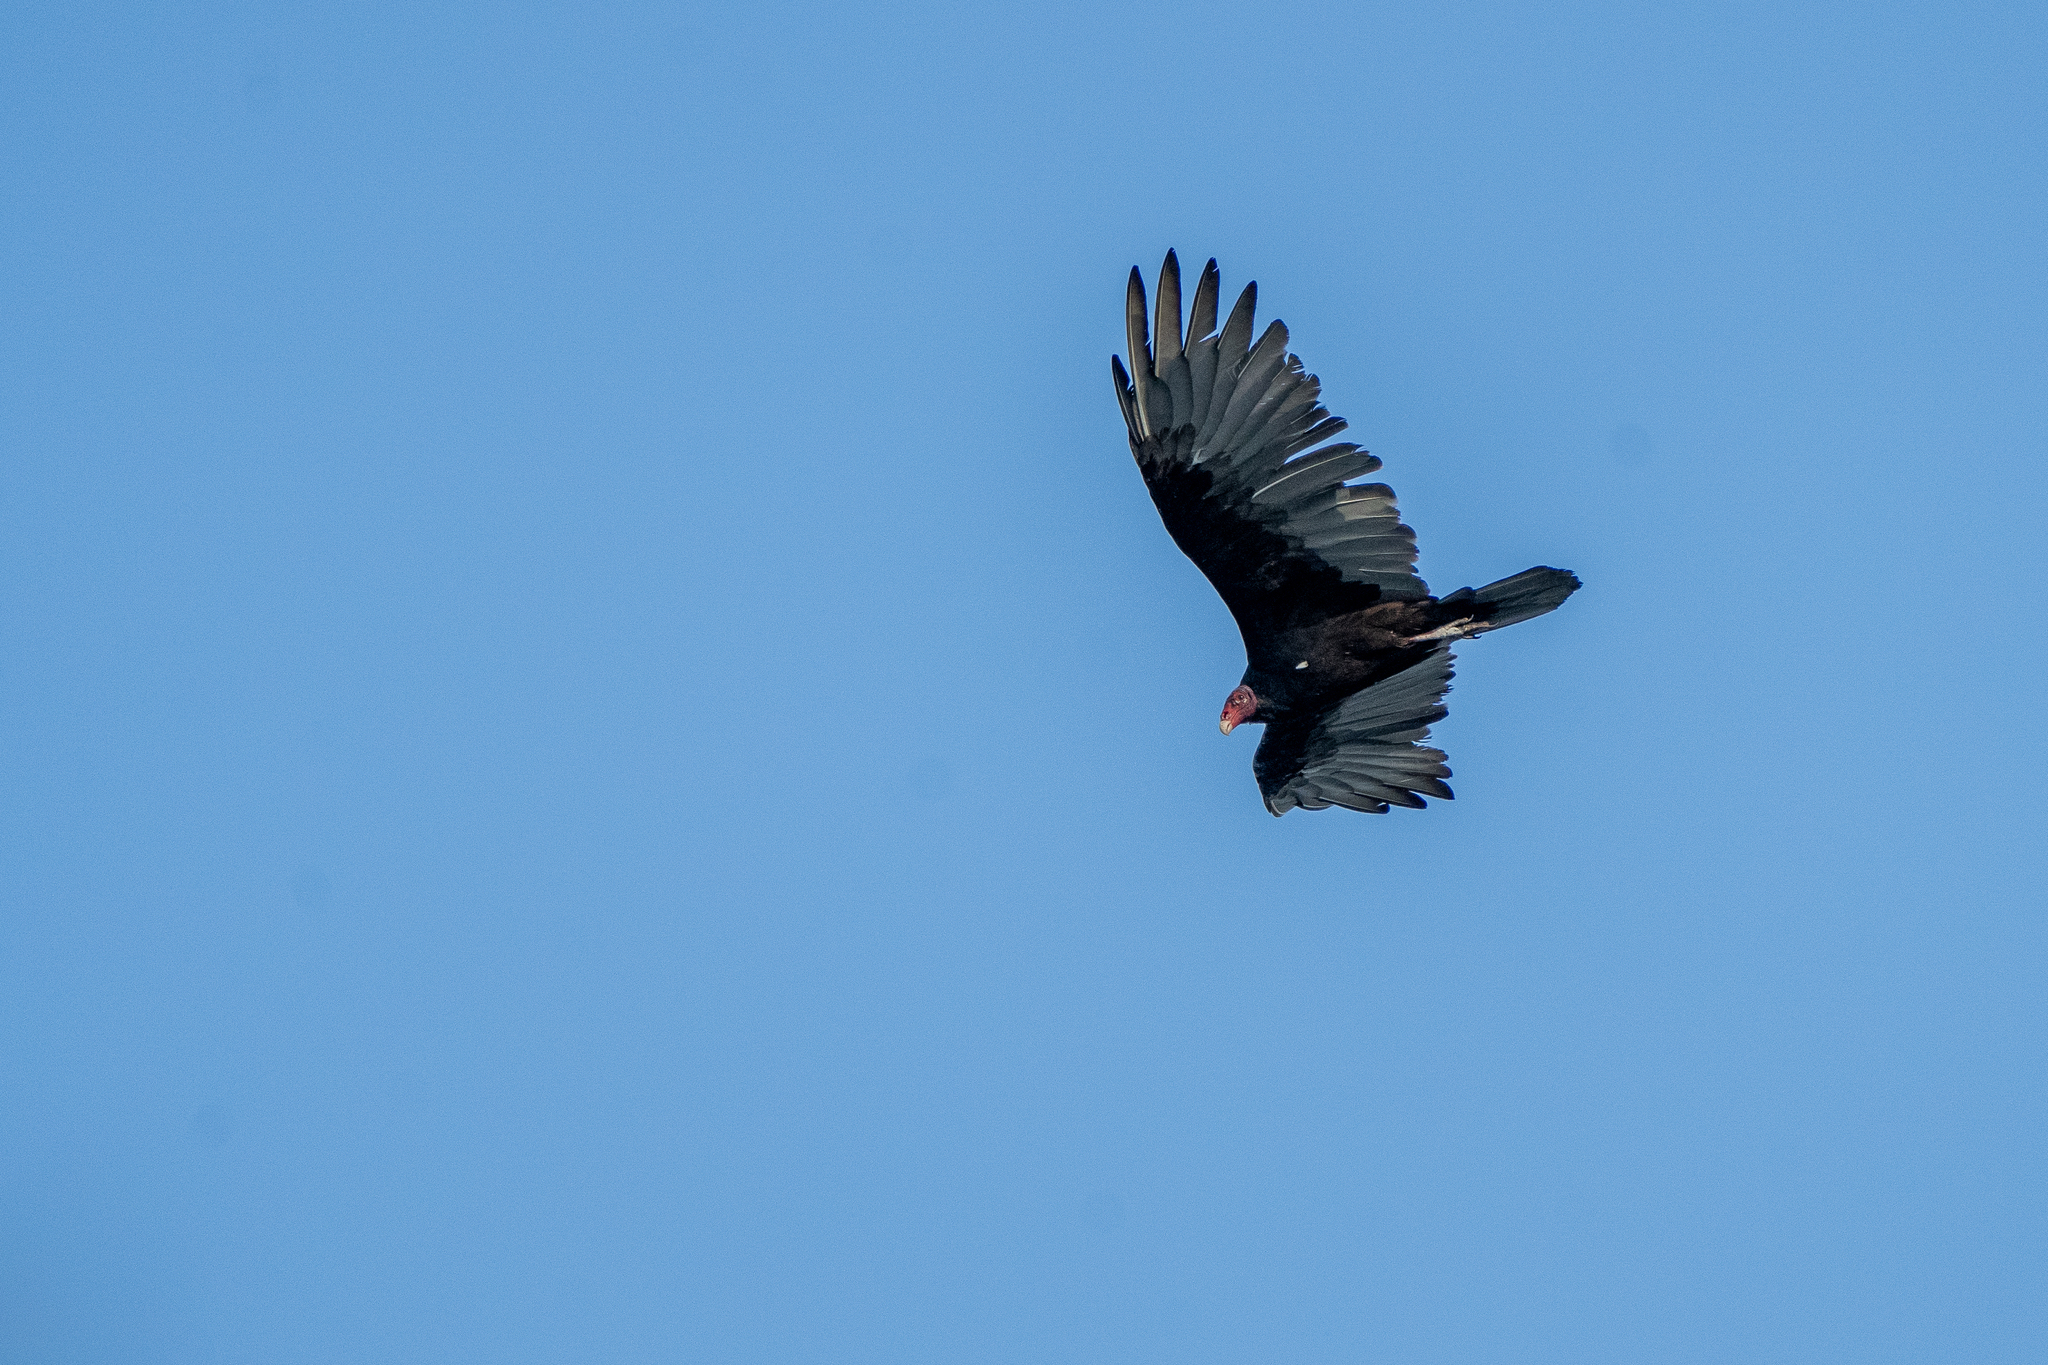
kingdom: Animalia
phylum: Chordata
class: Aves
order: Accipitriformes
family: Cathartidae
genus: Cathartes
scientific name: Cathartes aura
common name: Turkey vulture
